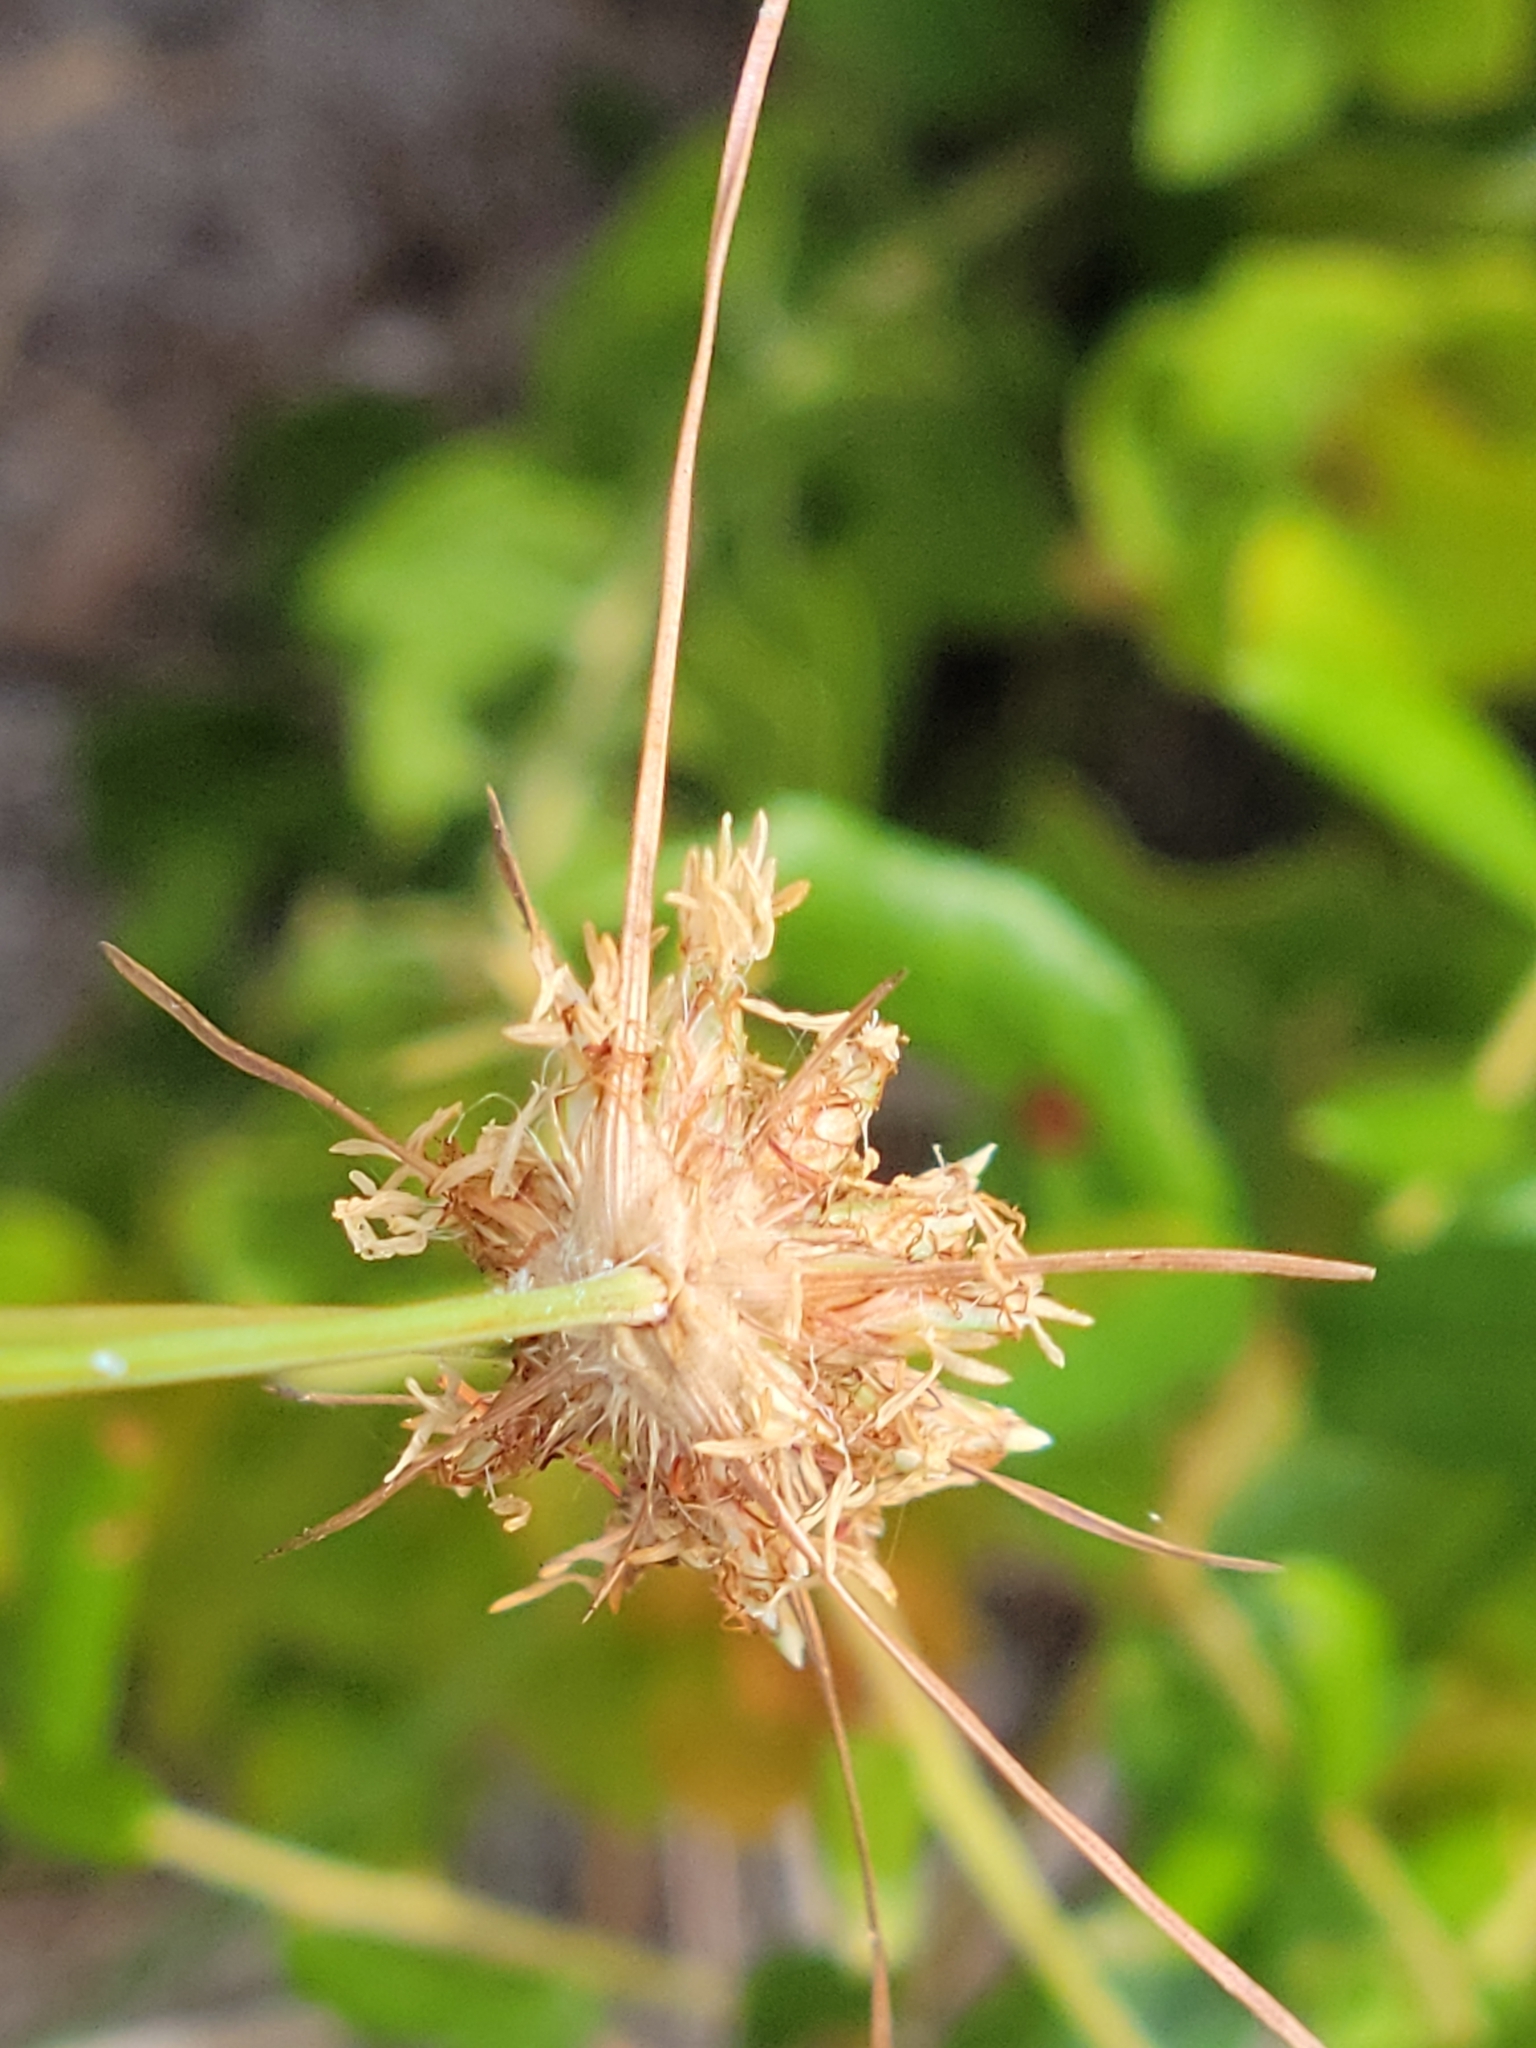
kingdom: Plantae
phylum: Tracheophyta
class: Liliopsida
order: Poales
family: Cyperaceae
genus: Bulbostylis
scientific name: Bulbostylis warei
